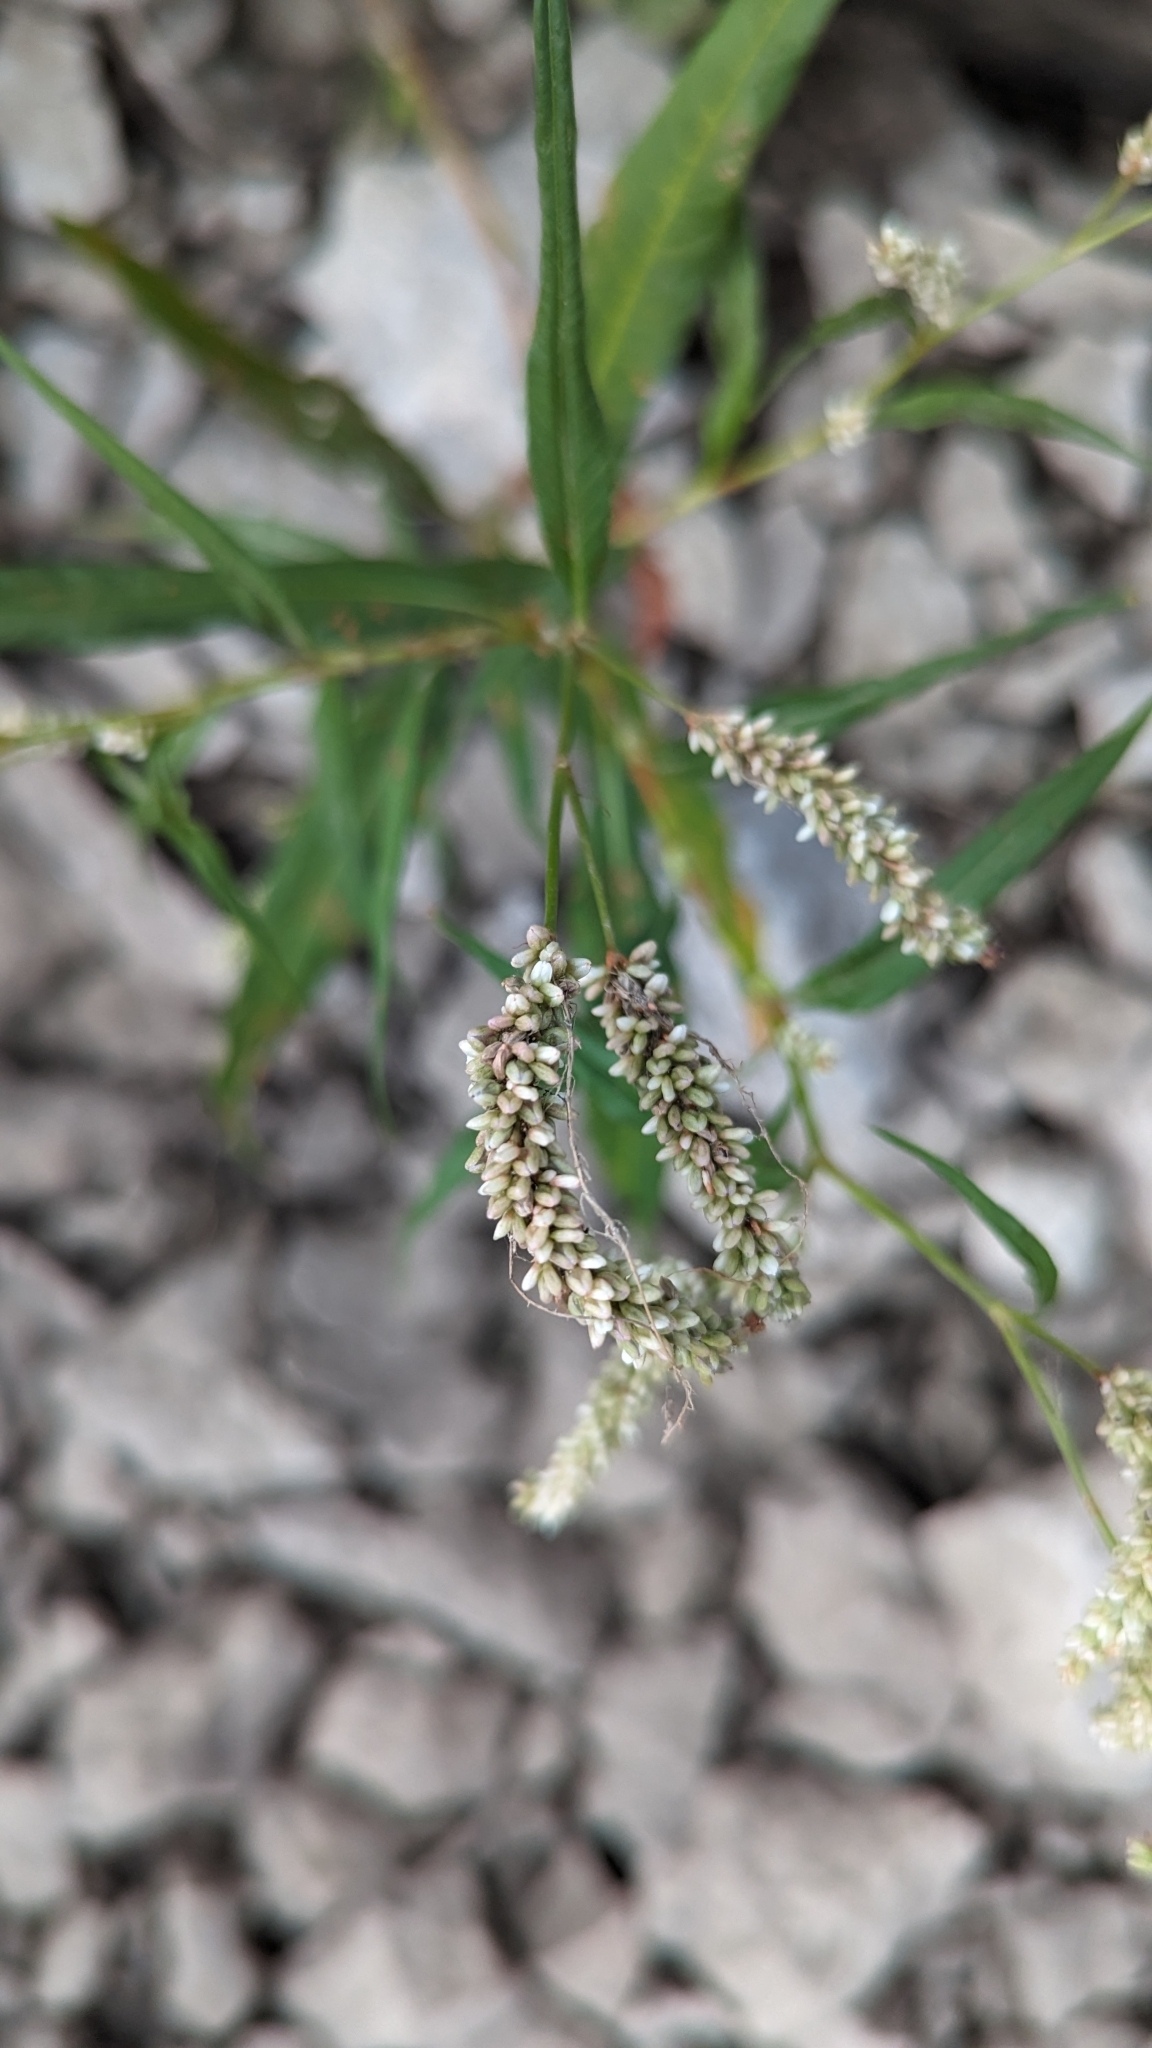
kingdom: Plantae
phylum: Tracheophyta
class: Magnoliopsida
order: Caryophyllales
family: Polygonaceae
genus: Persicaria
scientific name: Persicaria lapathifolia
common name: Curlytop knotweed
